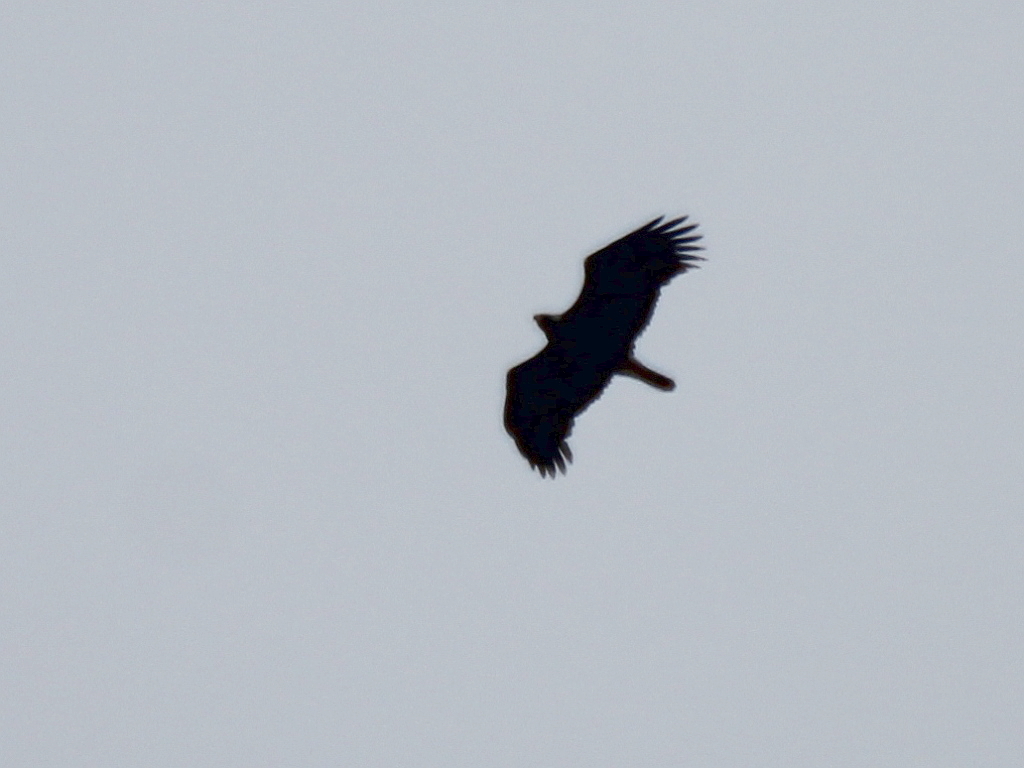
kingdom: Animalia
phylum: Chordata
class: Aves
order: Accipitriformes
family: Accipitridae
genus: Aquila
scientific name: Aquila heliaca
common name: Eastern imperial eagle
